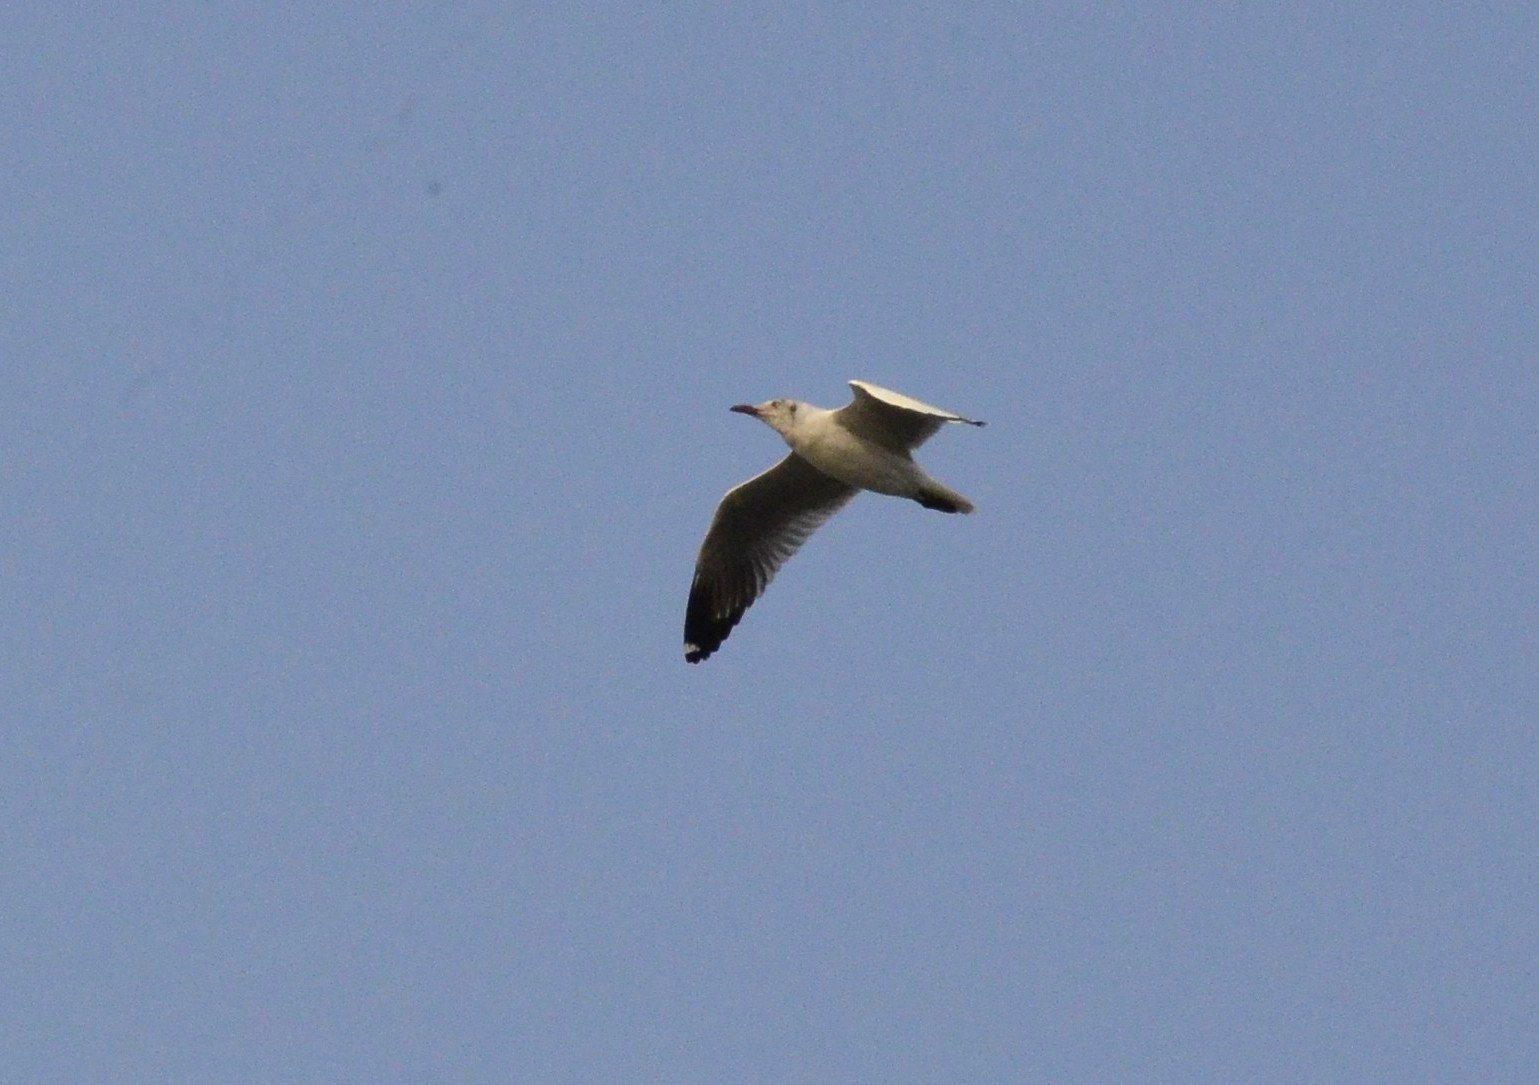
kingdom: Animalia
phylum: Chordata
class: Aves
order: Charadriiformes
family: Laridae
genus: Chroicocephalus
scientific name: Chroicocephalus brunnicephalus
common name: Brown-headed gull
